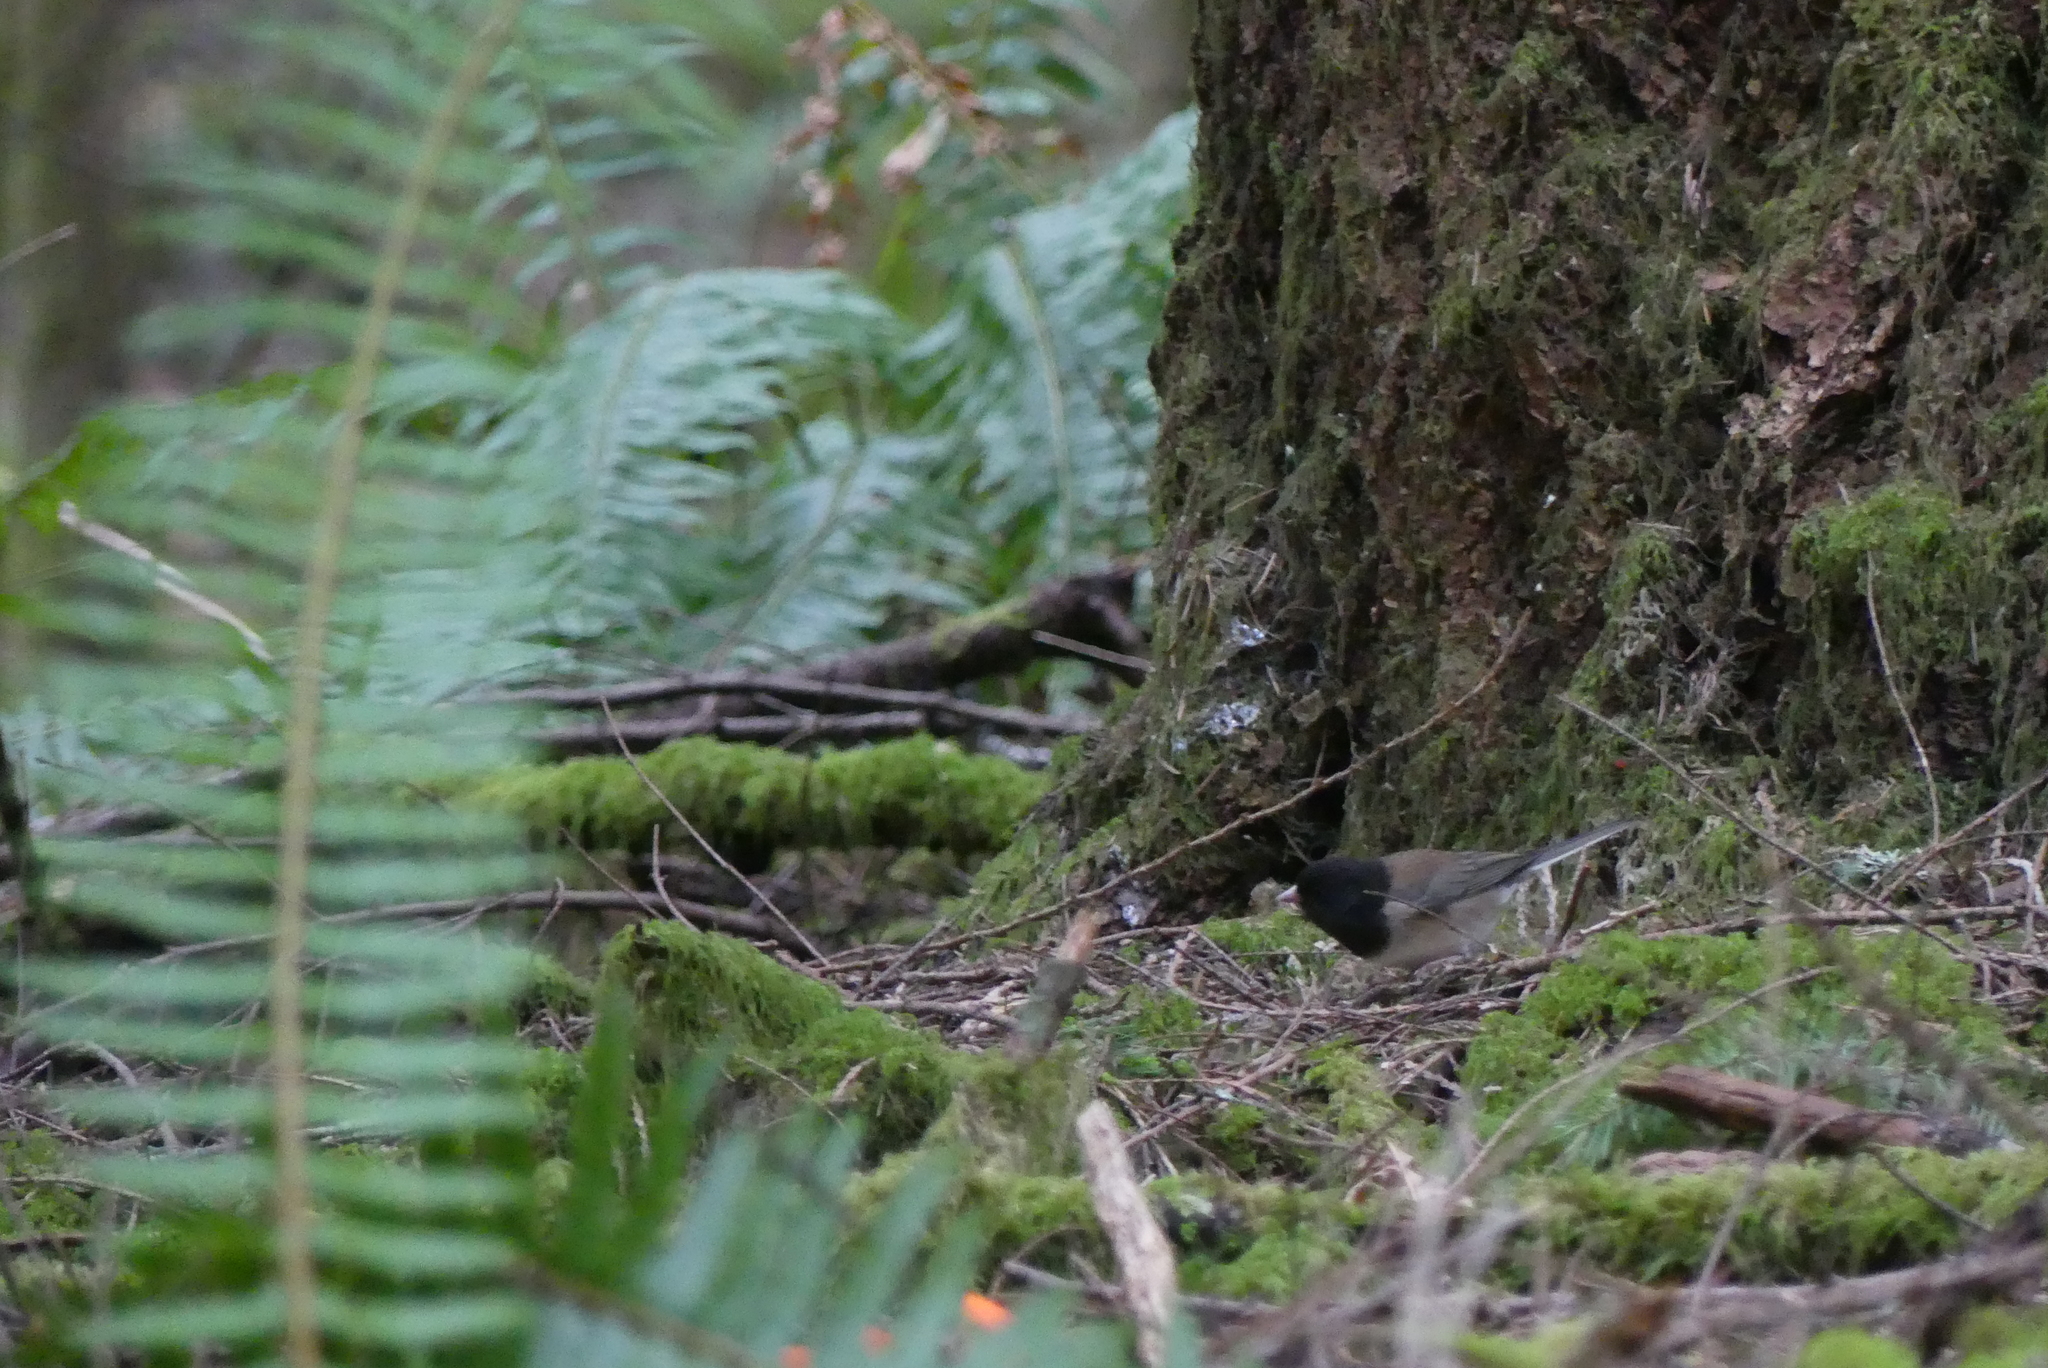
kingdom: Animalia
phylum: Chordata
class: Aves
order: Passeriformes
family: Passerellidae
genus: Junco
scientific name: Junco hyemalis
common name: Dark-eyed junco
